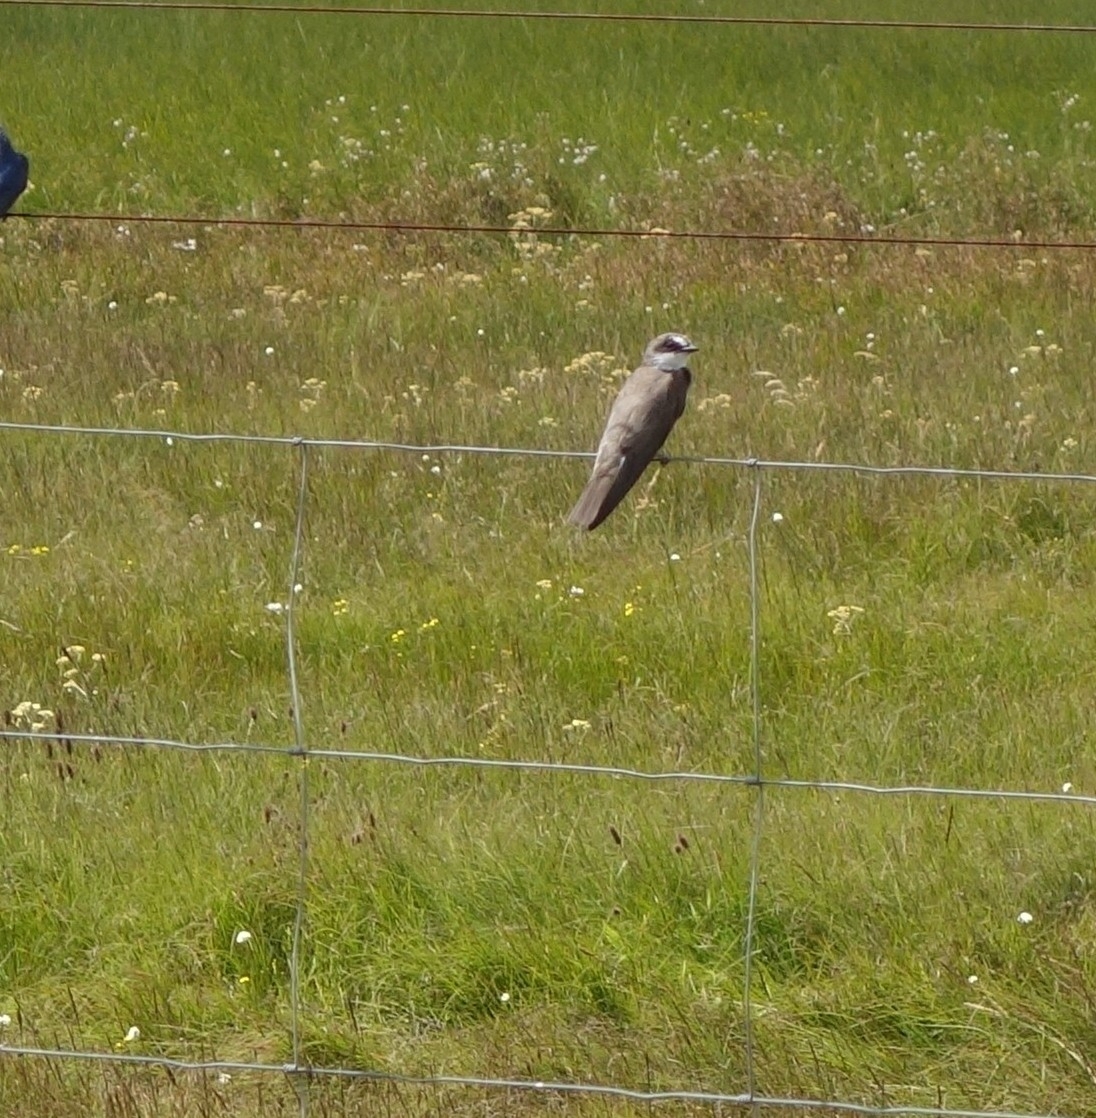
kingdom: Animalia
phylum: Chordata
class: Aves
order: Passeriformes
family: Hirundinidae
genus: Riparia
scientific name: Riparia cincta
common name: Banded martin
